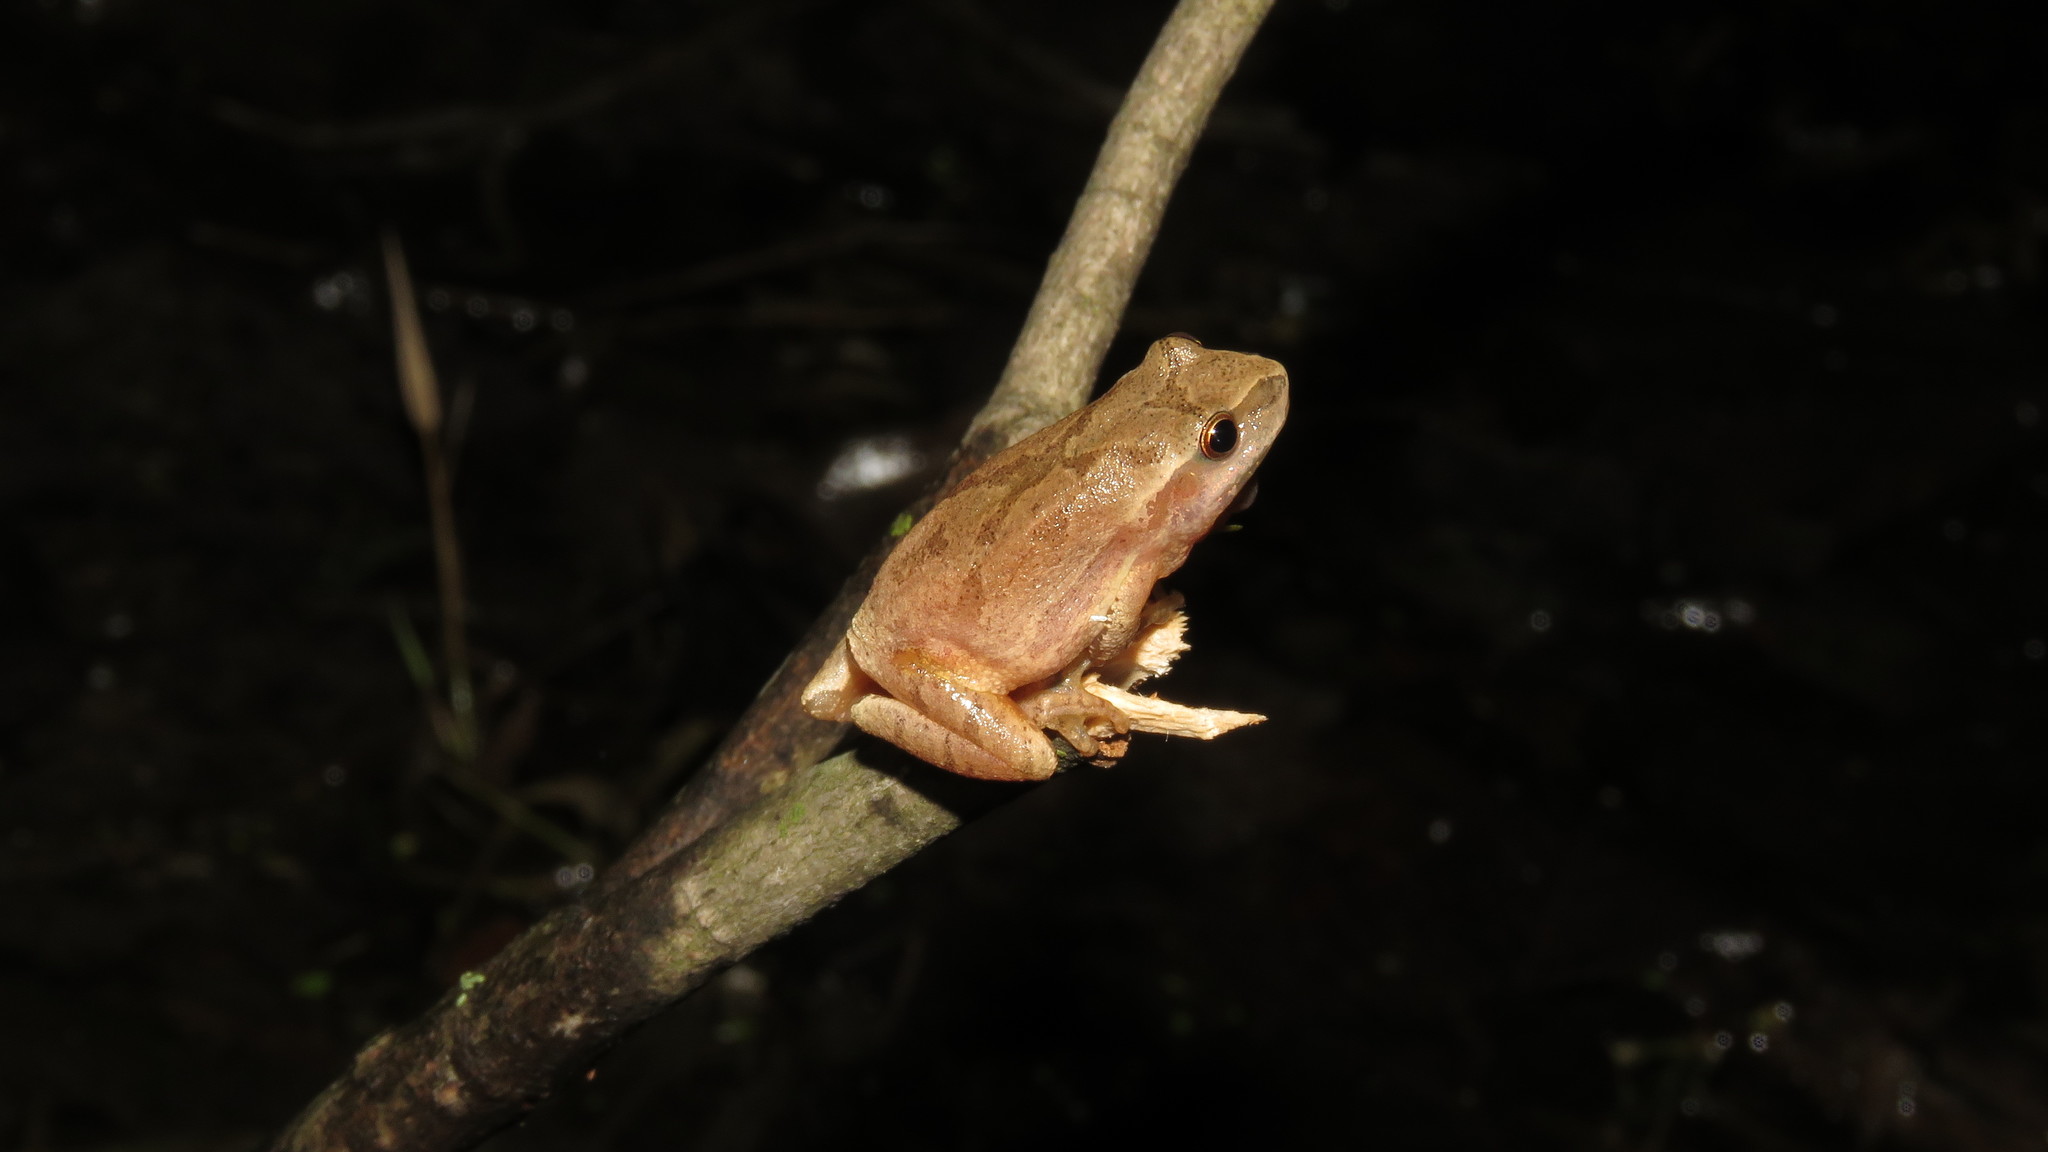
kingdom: Animalia
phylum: Chordata
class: Amphibia
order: Anura
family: Hylidae
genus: Pseudacris
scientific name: Pseudacris crucifer
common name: Spring peeper
